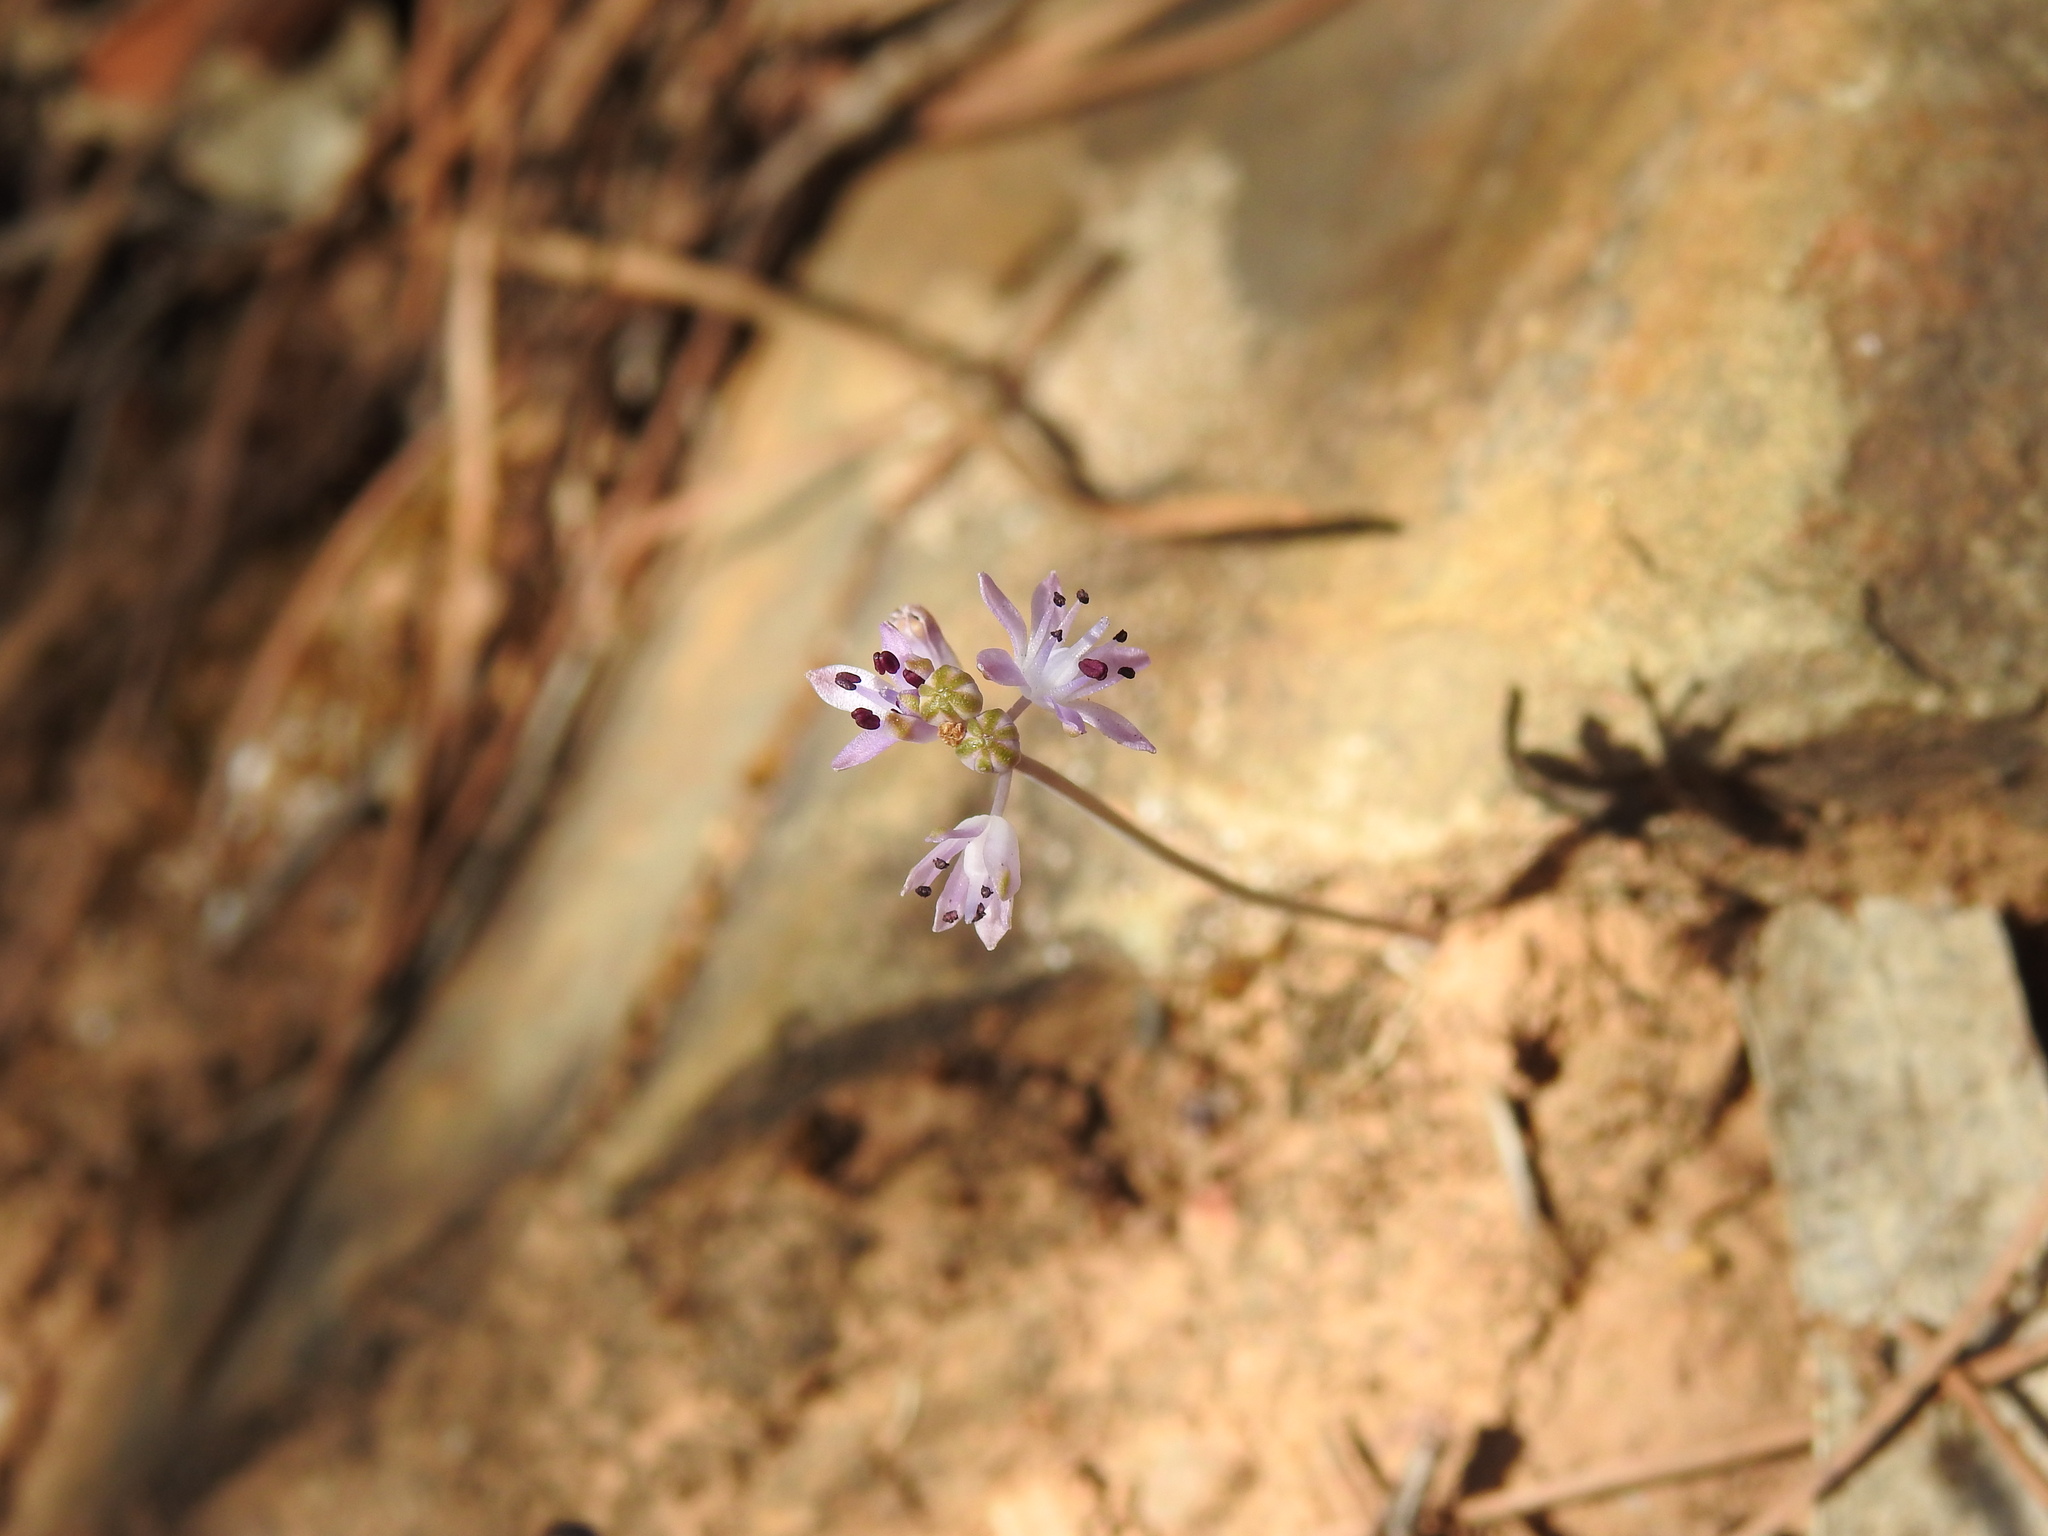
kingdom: Plantae
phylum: Tracheophyta
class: Liliopsida
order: Asparagales
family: Asparagaceae
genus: Prospero
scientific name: Prospero autumnale
